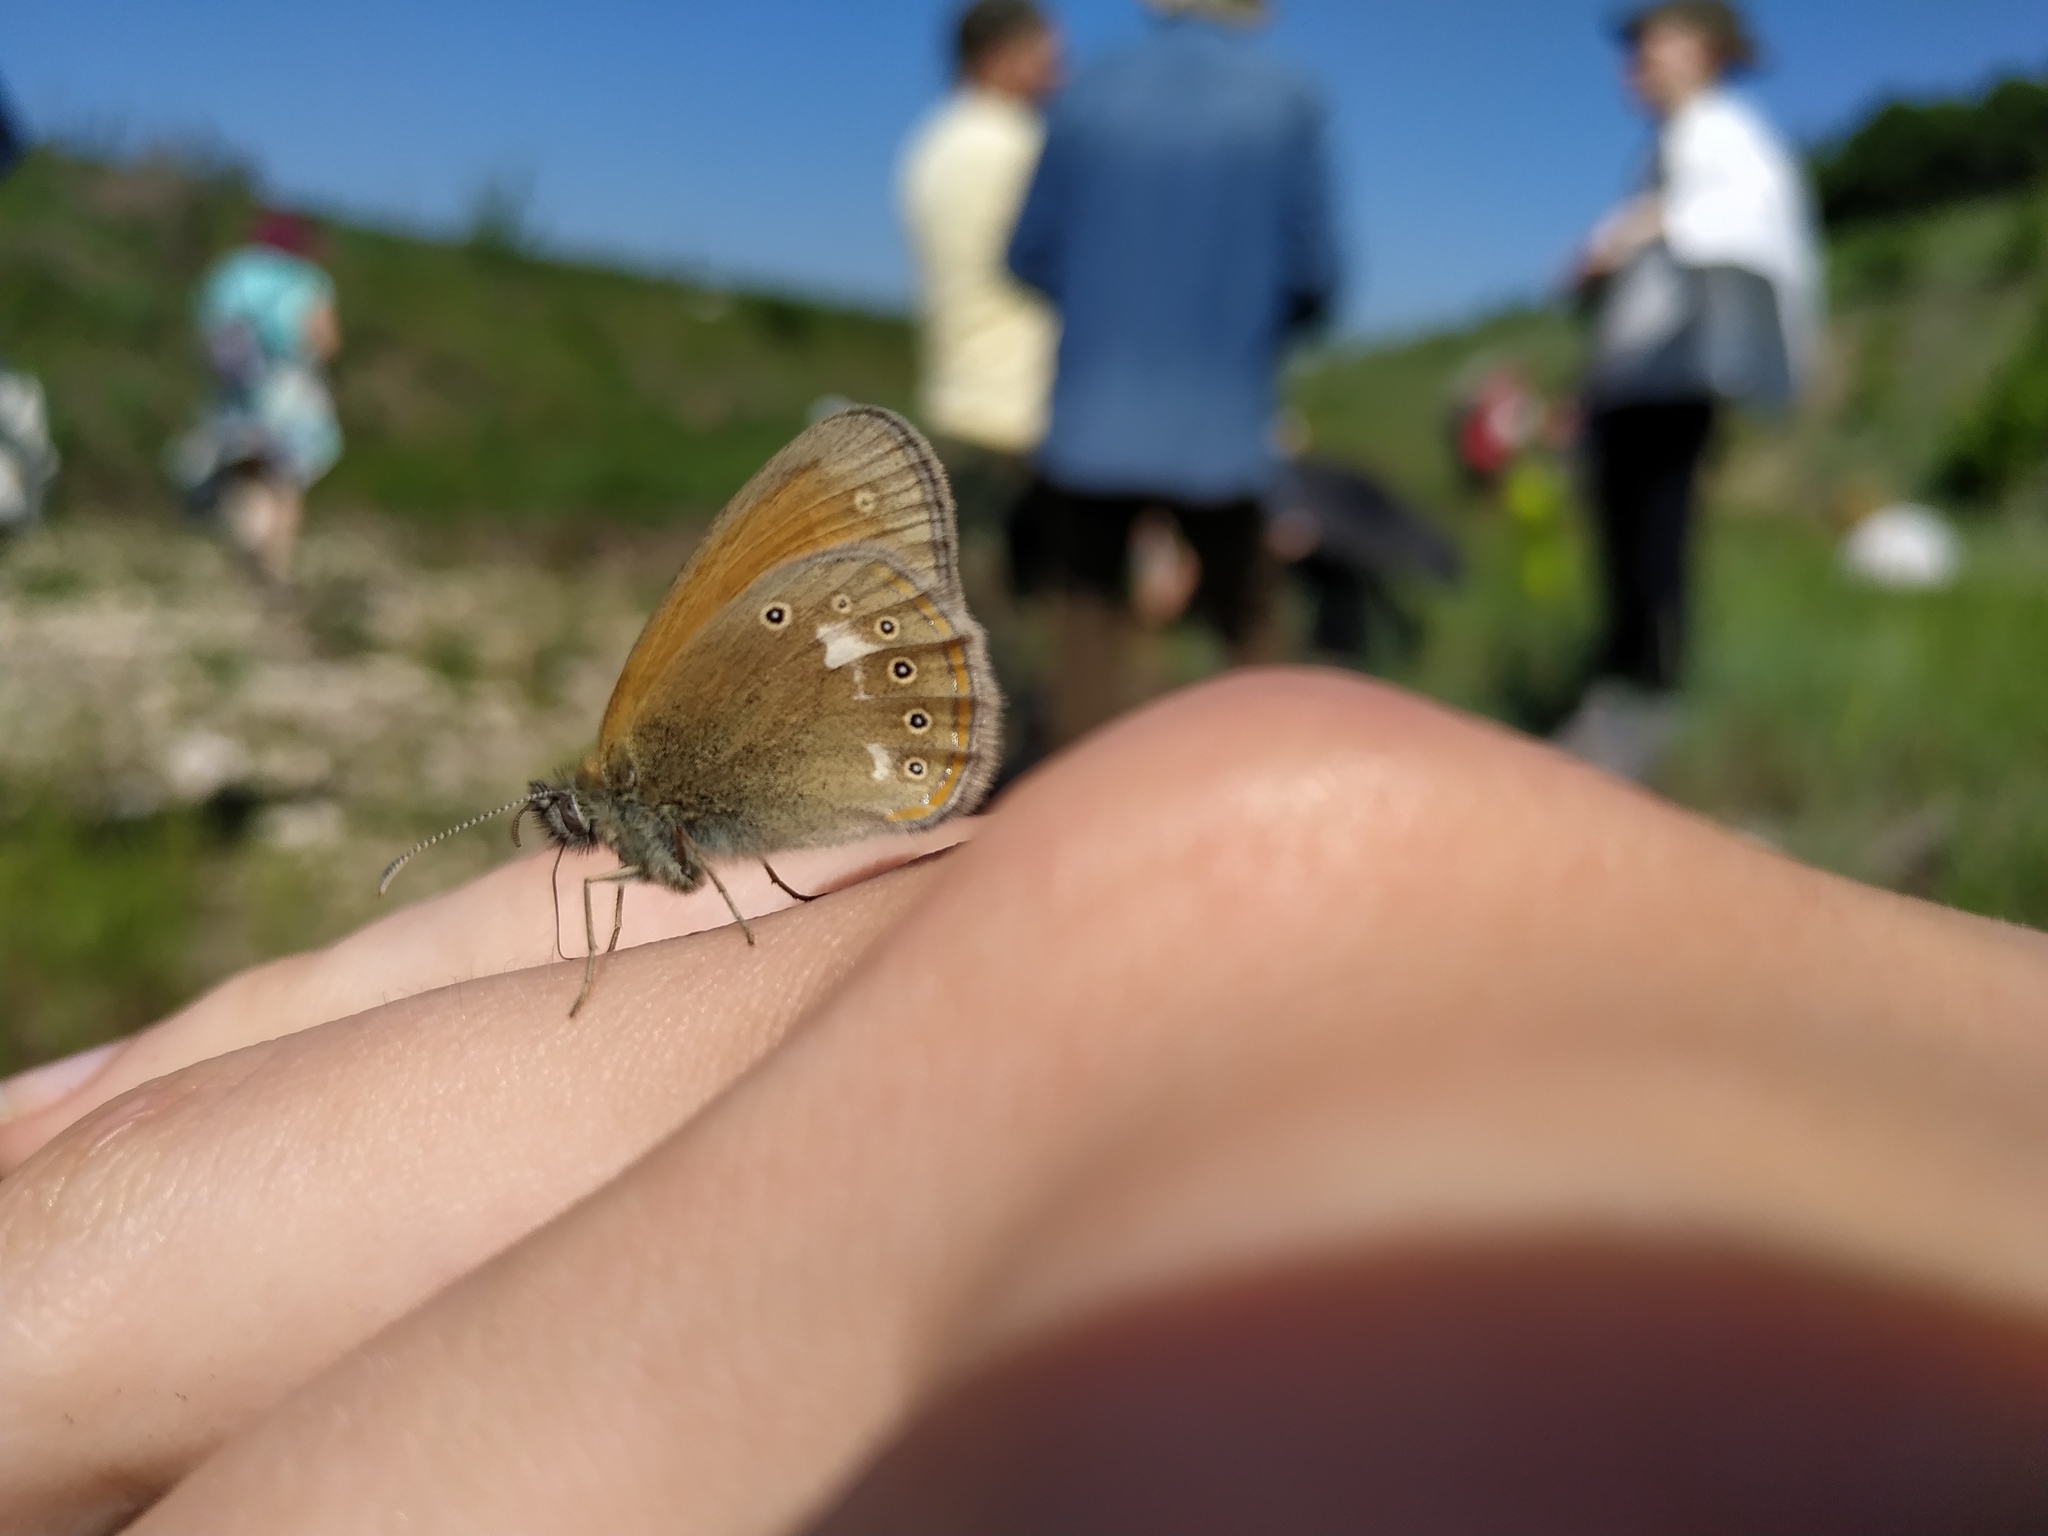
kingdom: Animalia
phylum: Arthropoda
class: Insecta
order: Lepidoptera
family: Nymphalidae
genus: Coenonympha
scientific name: Coenonympha iphis
